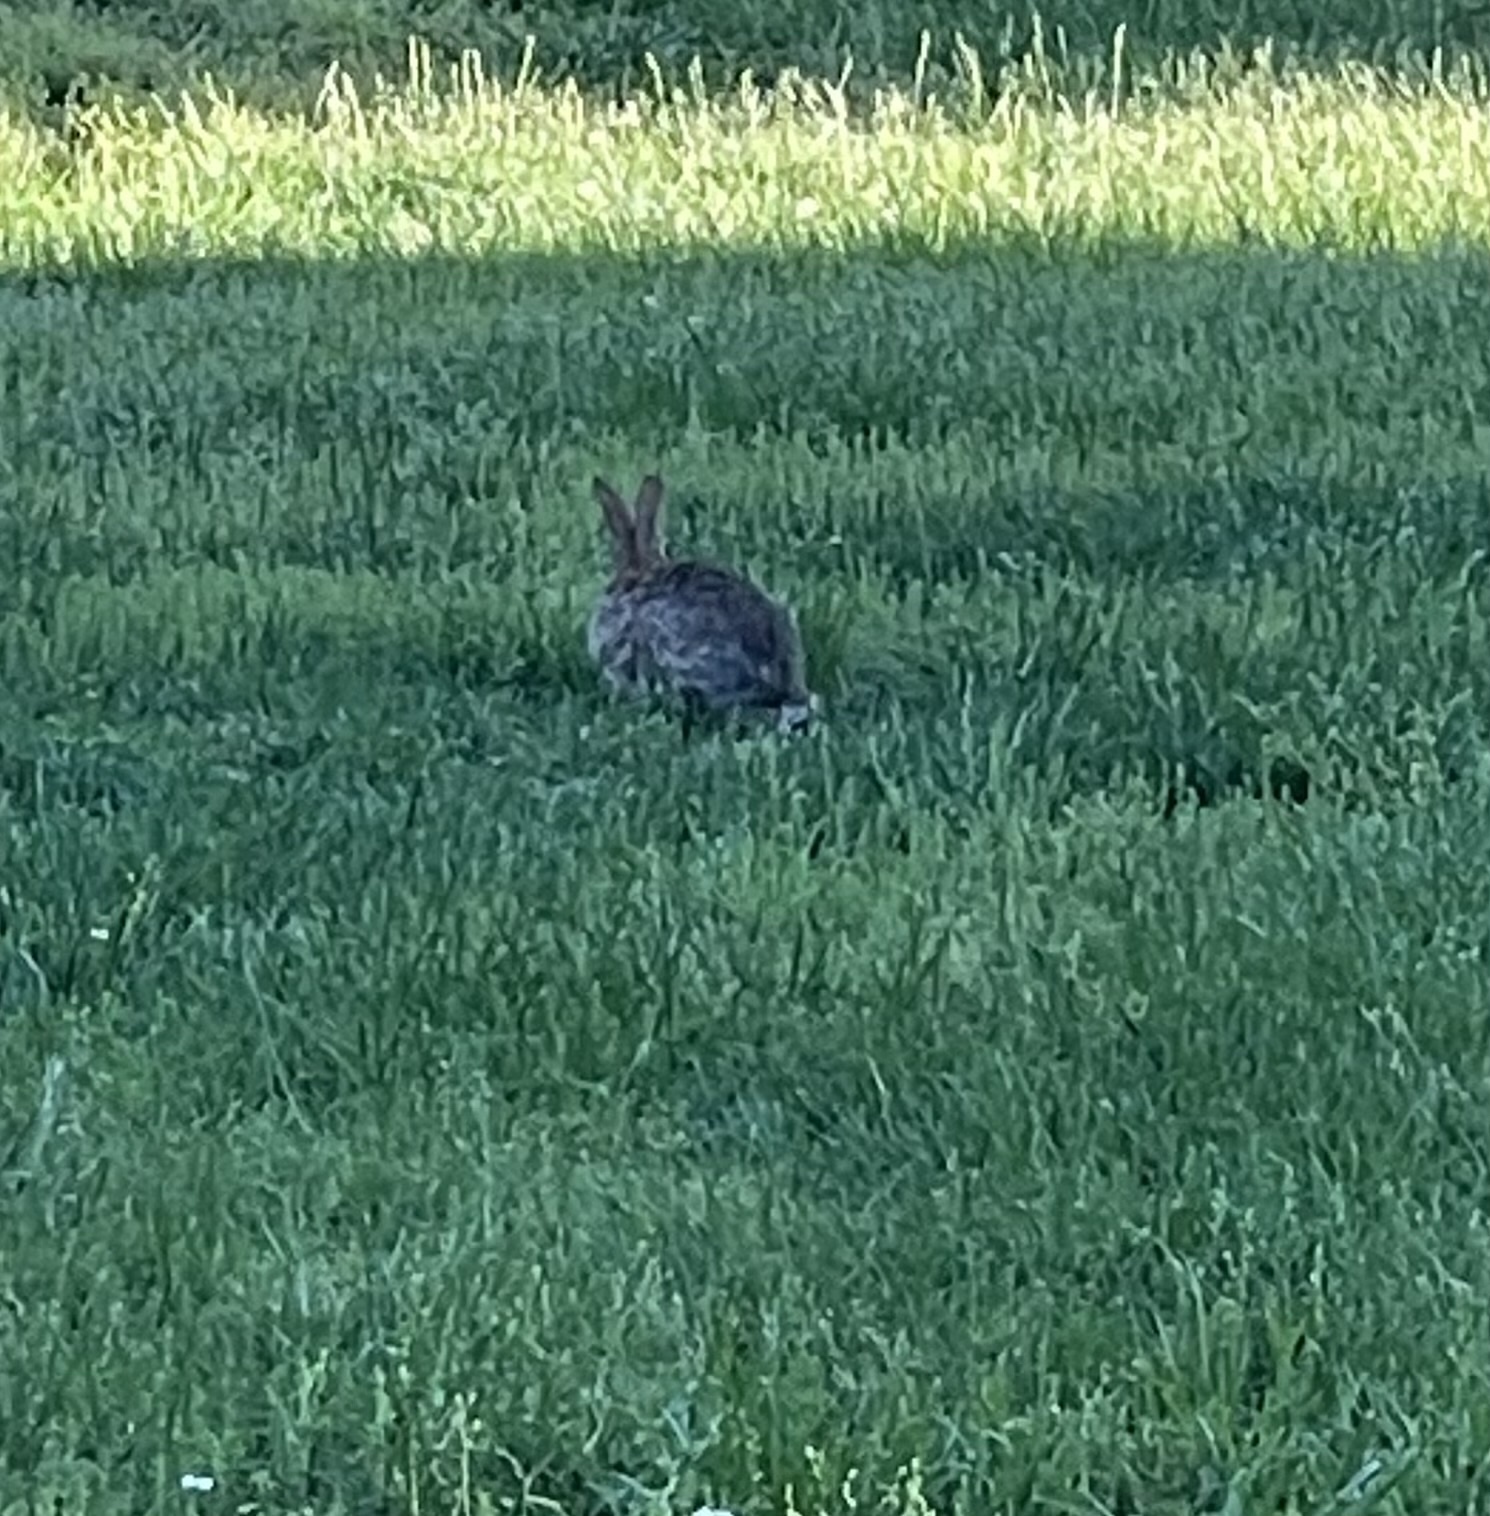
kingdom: Animalia
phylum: Chordata
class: Mammalia
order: Lagomorpha
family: Leporidae
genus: Sylvilagus
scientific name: Sylvilagus floridanus
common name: Eastern cottontail
